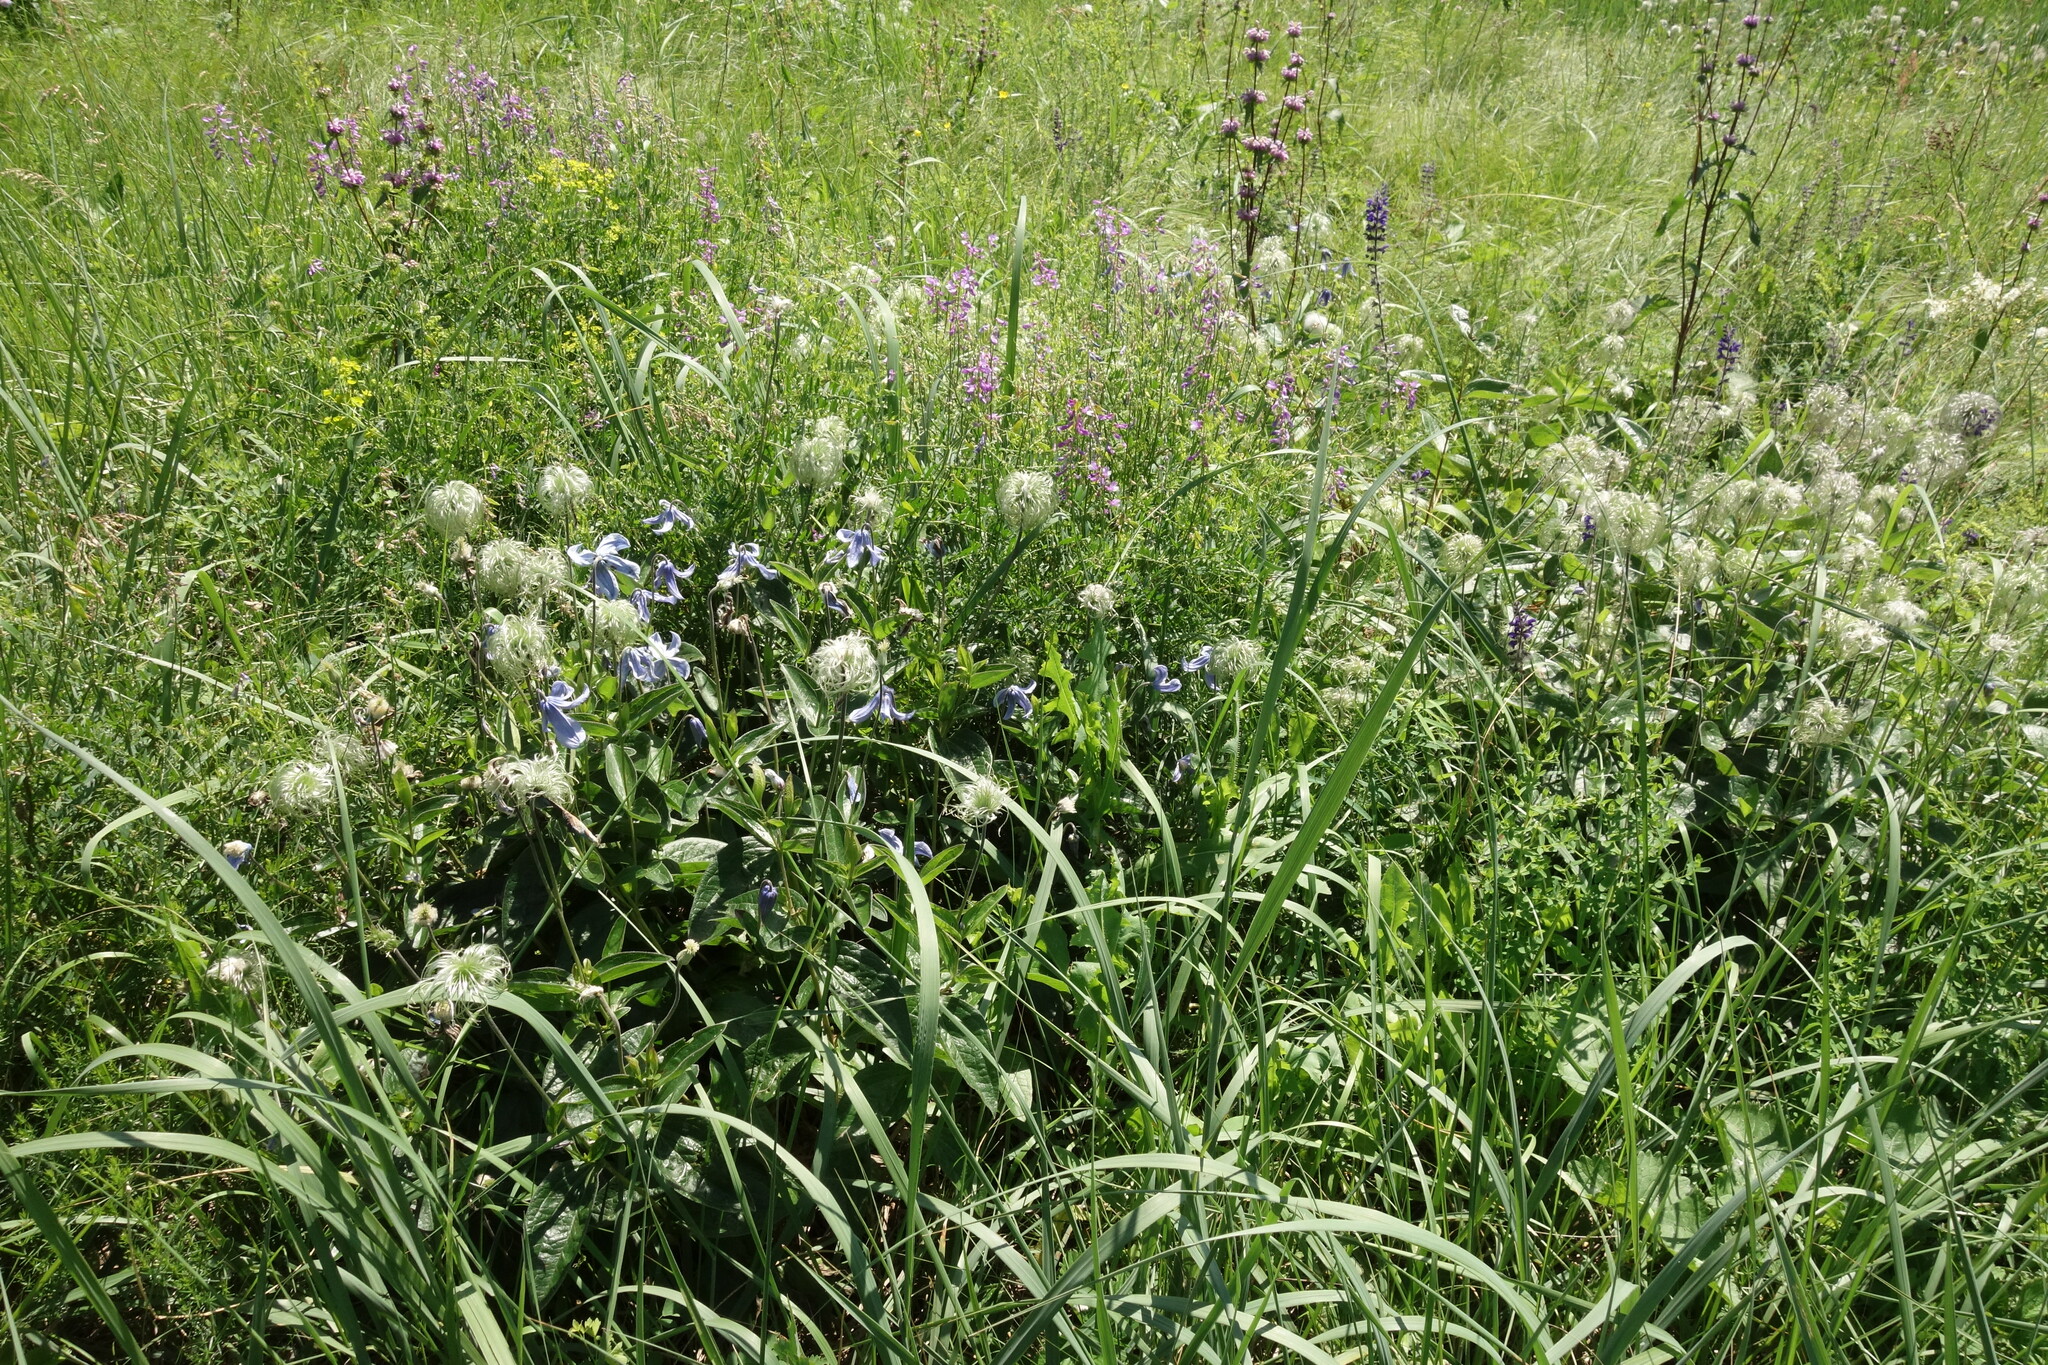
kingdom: Plantae
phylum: Tracheophyta
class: Magnoliopsida
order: Ranunculales
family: Ranunculaceae
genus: Clematis
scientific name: Clematis integrifolia
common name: Solitary clematis
